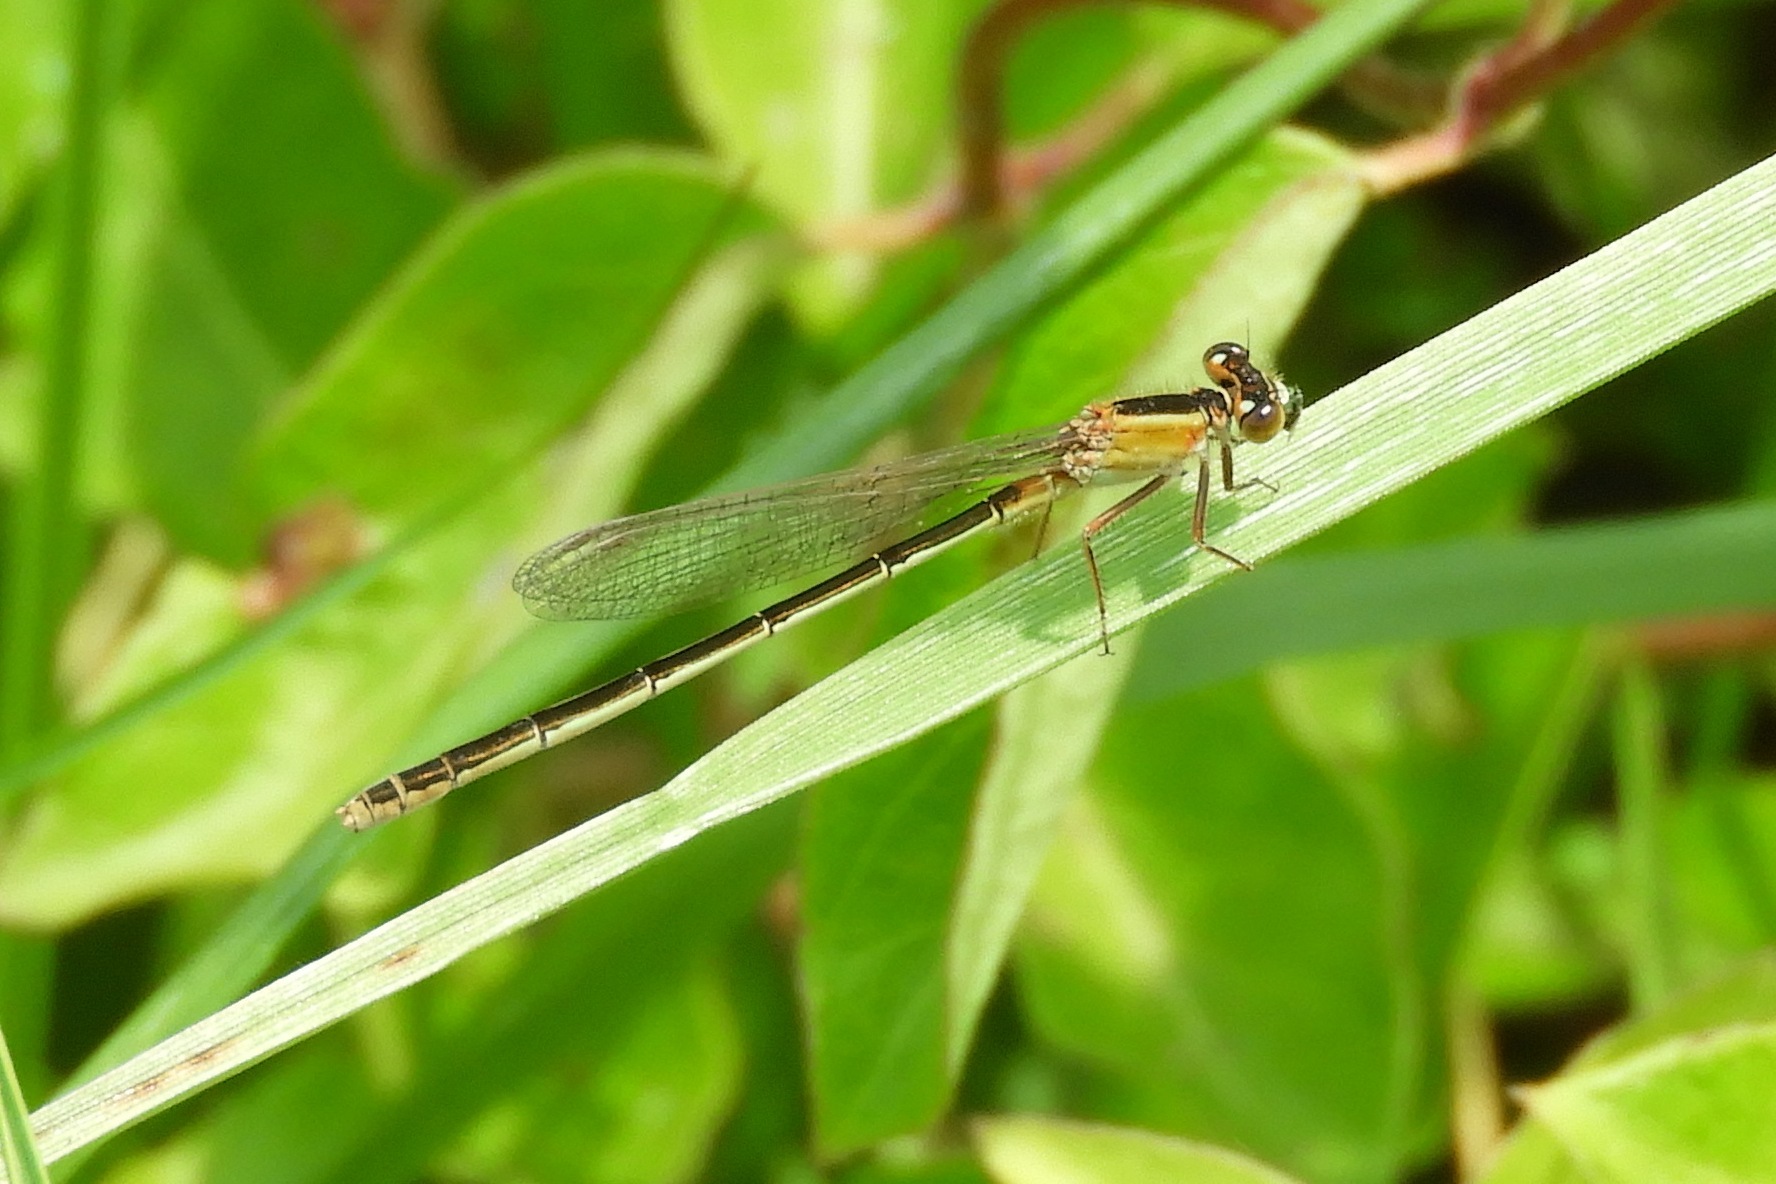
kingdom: Animalia
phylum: Arthropoda
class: Insecta
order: Odonata
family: Coenagrionidae
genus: Ischnura
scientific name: Ischnura ramburii
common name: Rambur's forktail
